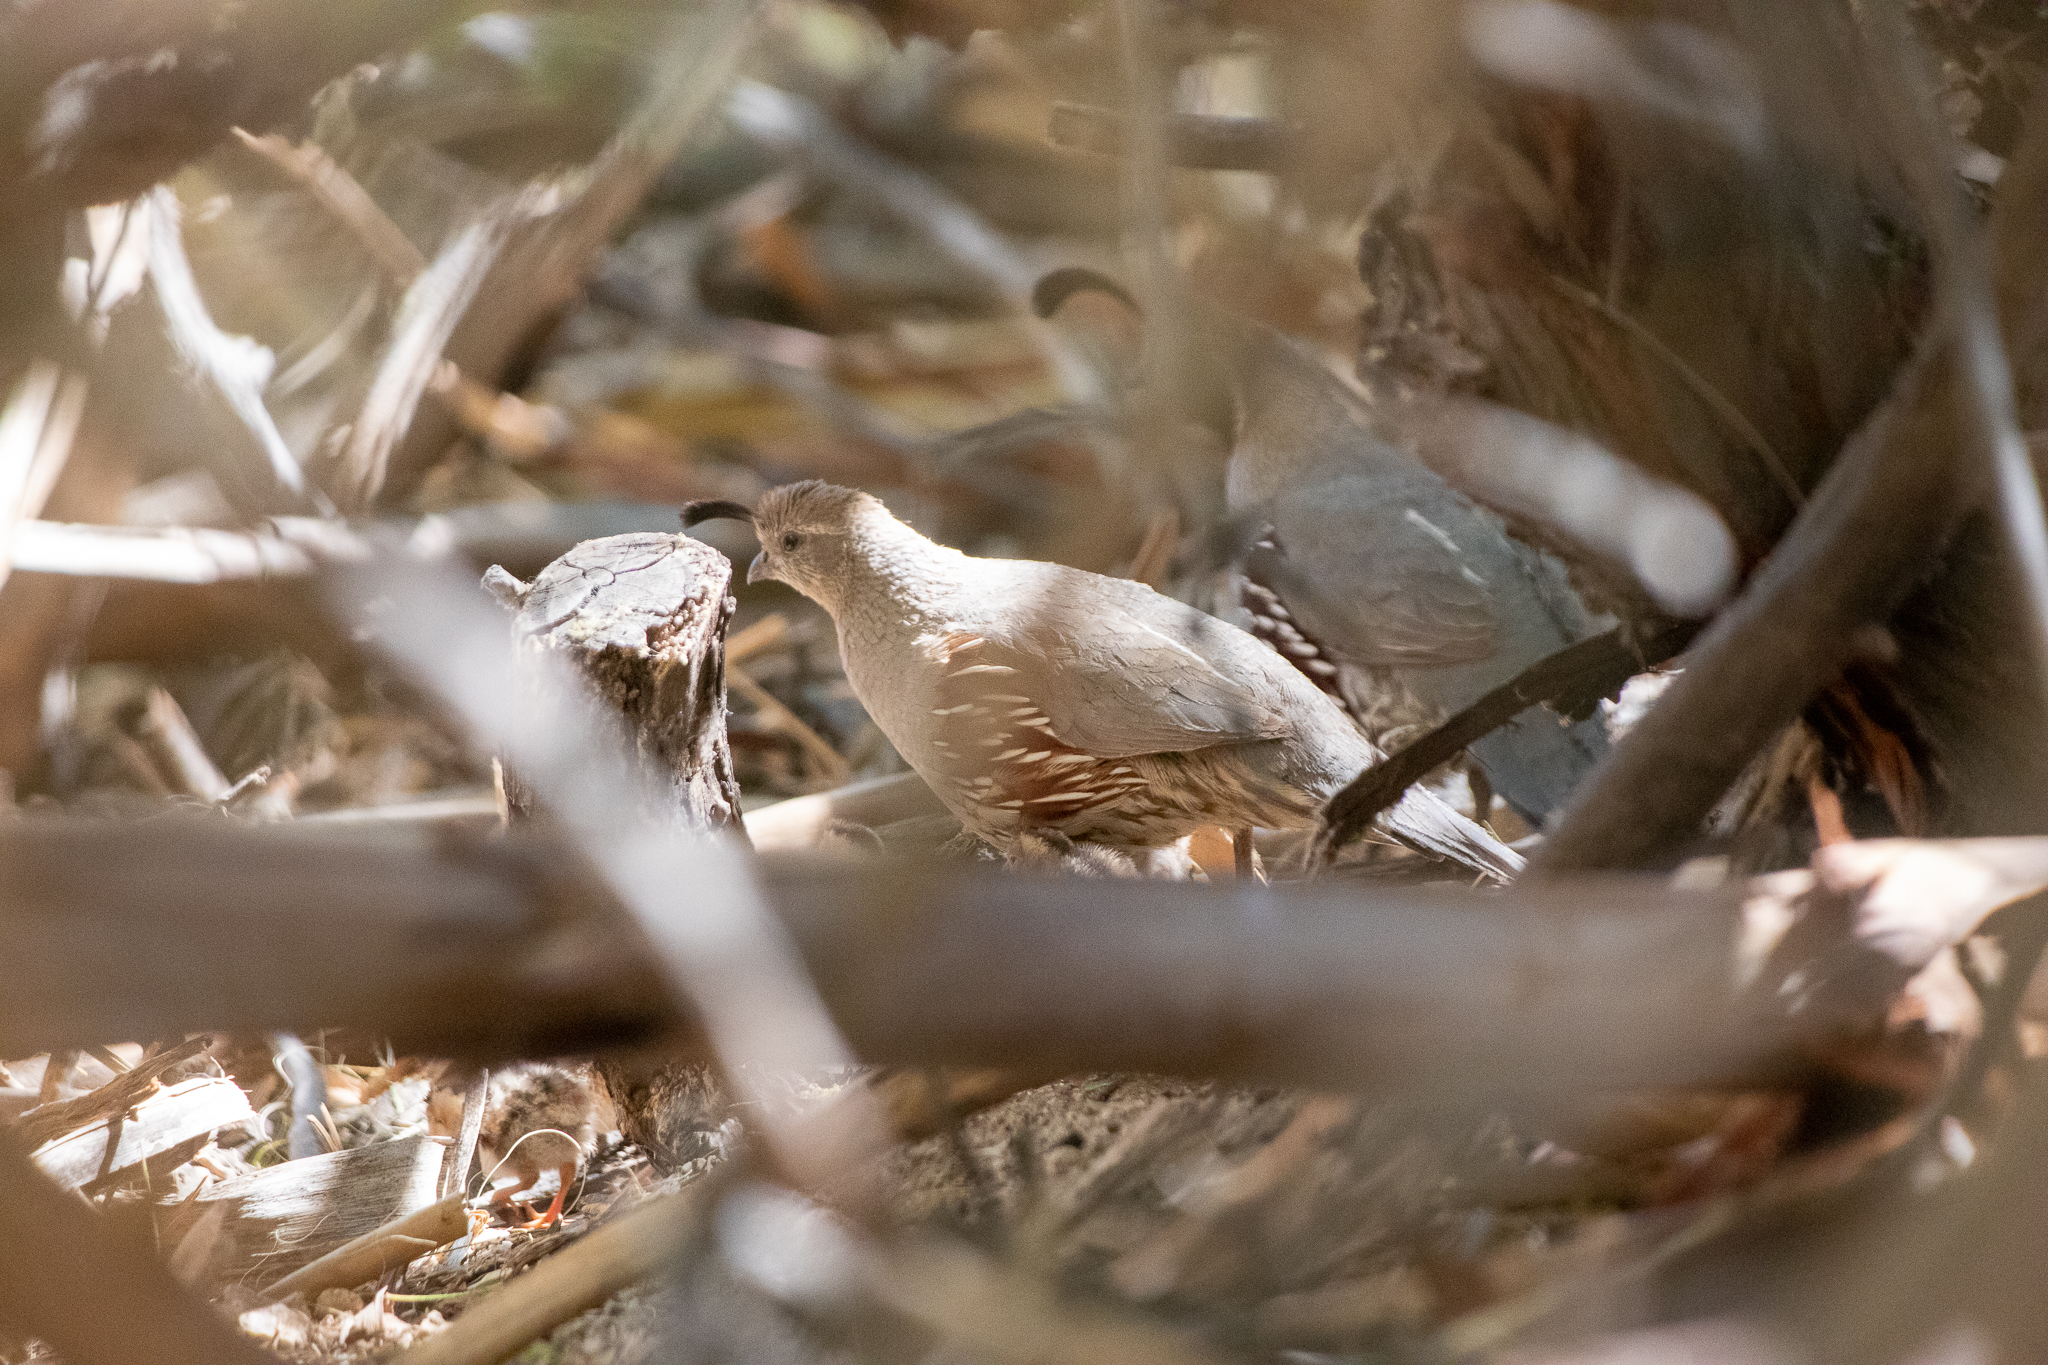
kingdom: Animalia
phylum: Chordata
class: Aves
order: Galliformes
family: Odontophoridae
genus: Callipepla
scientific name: Callipepla gambelii
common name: Gambel's quail
